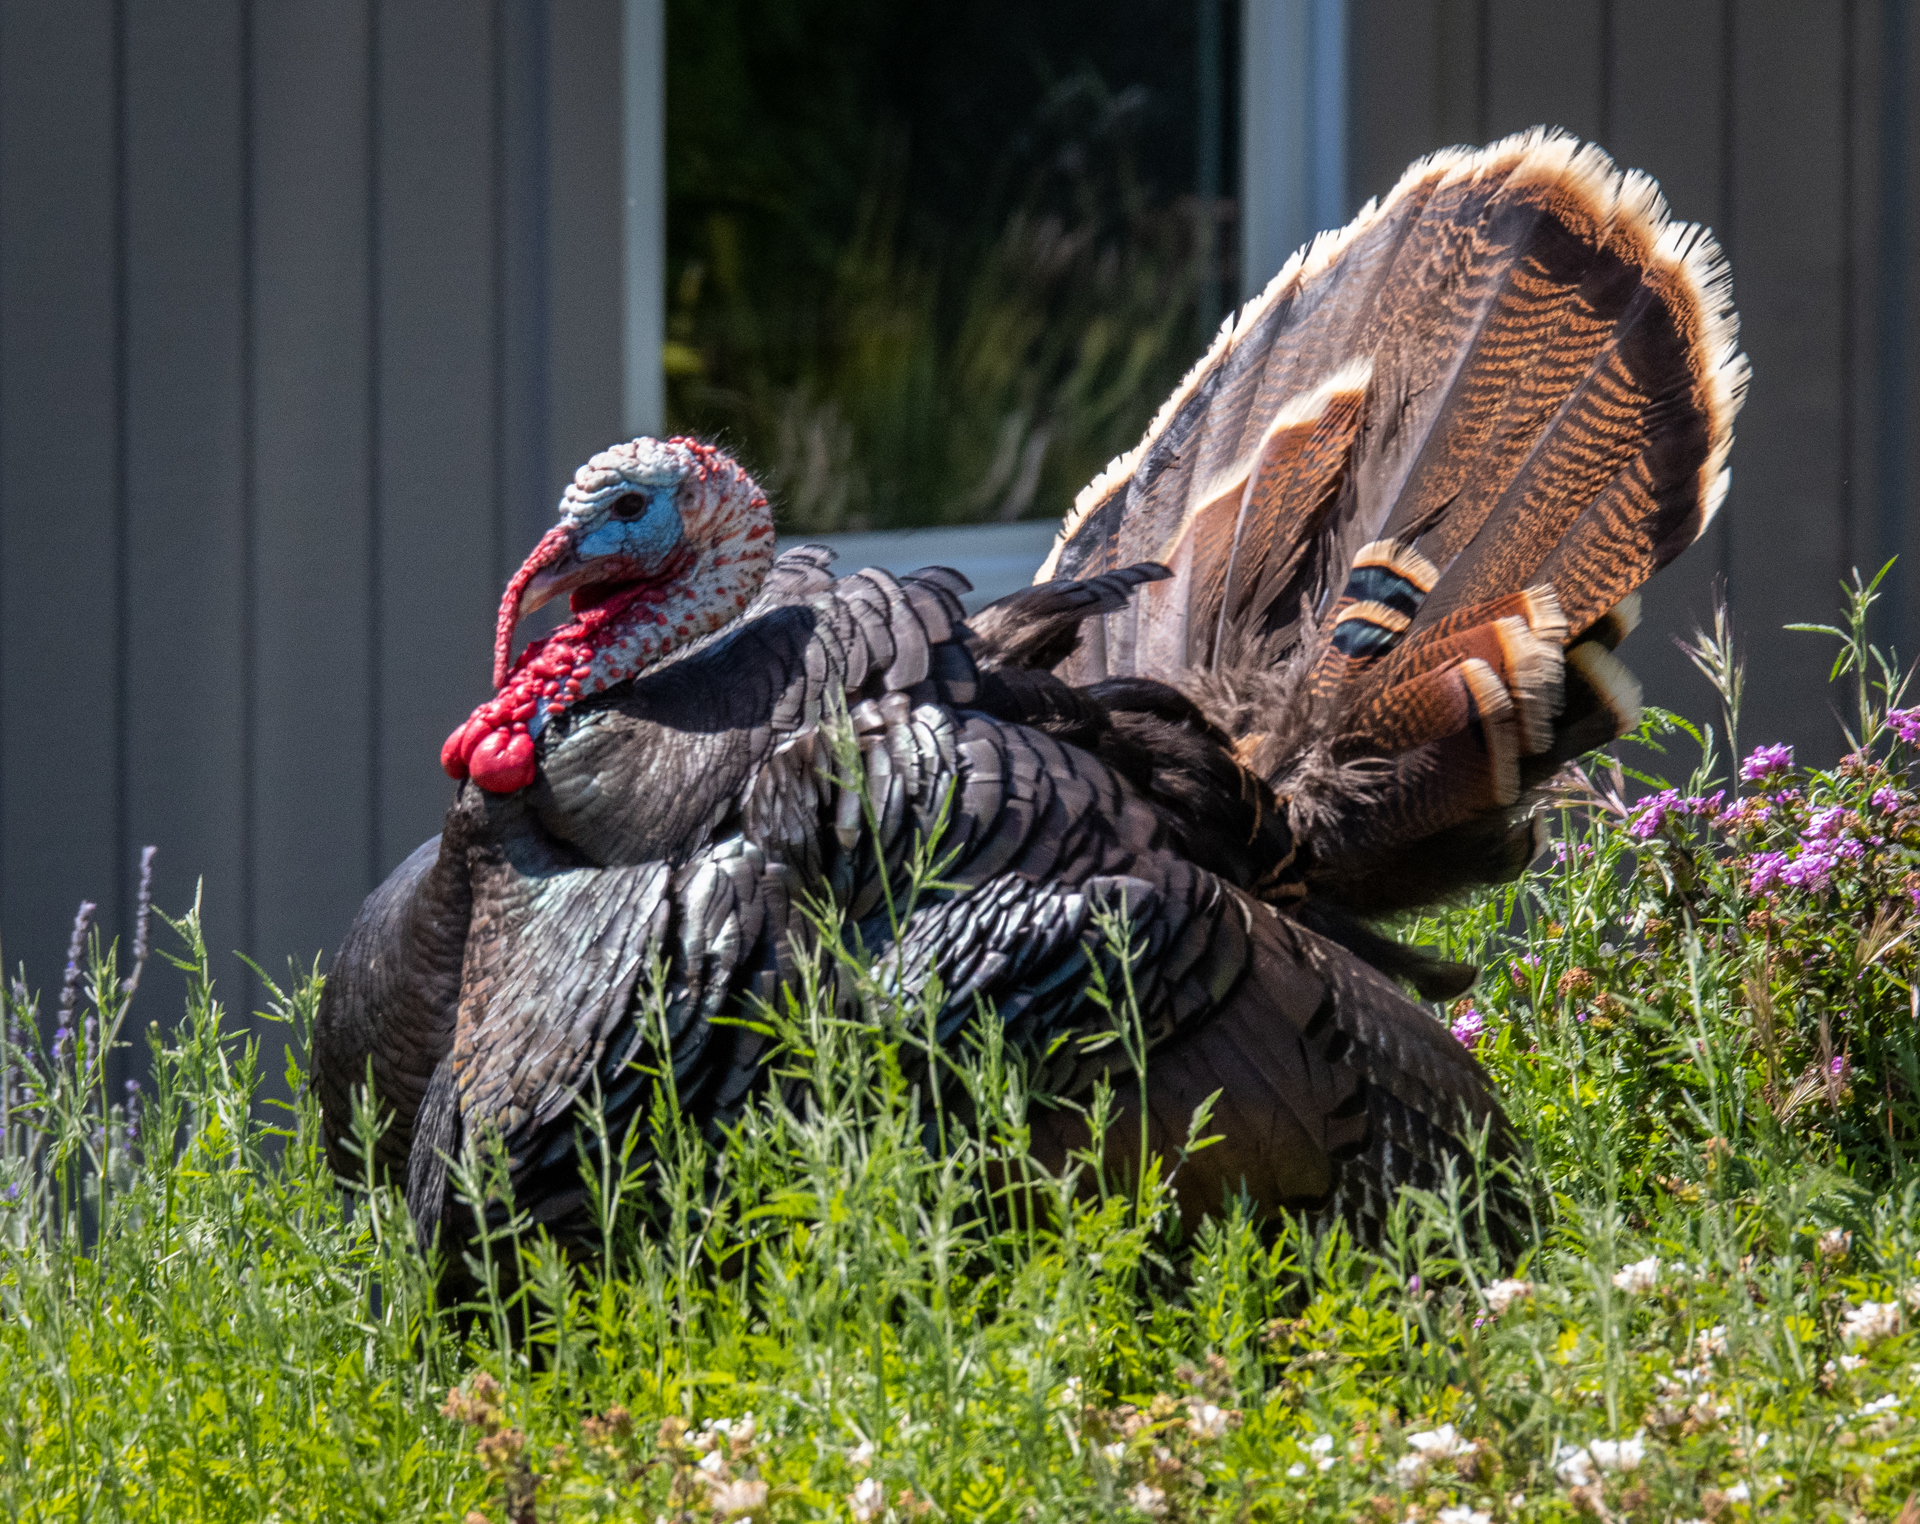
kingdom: Animalia
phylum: Chordata
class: Aves
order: Galliformes
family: Phasianidae
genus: Meleagris
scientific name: Meleagris gallopavo
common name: Wild turkey
